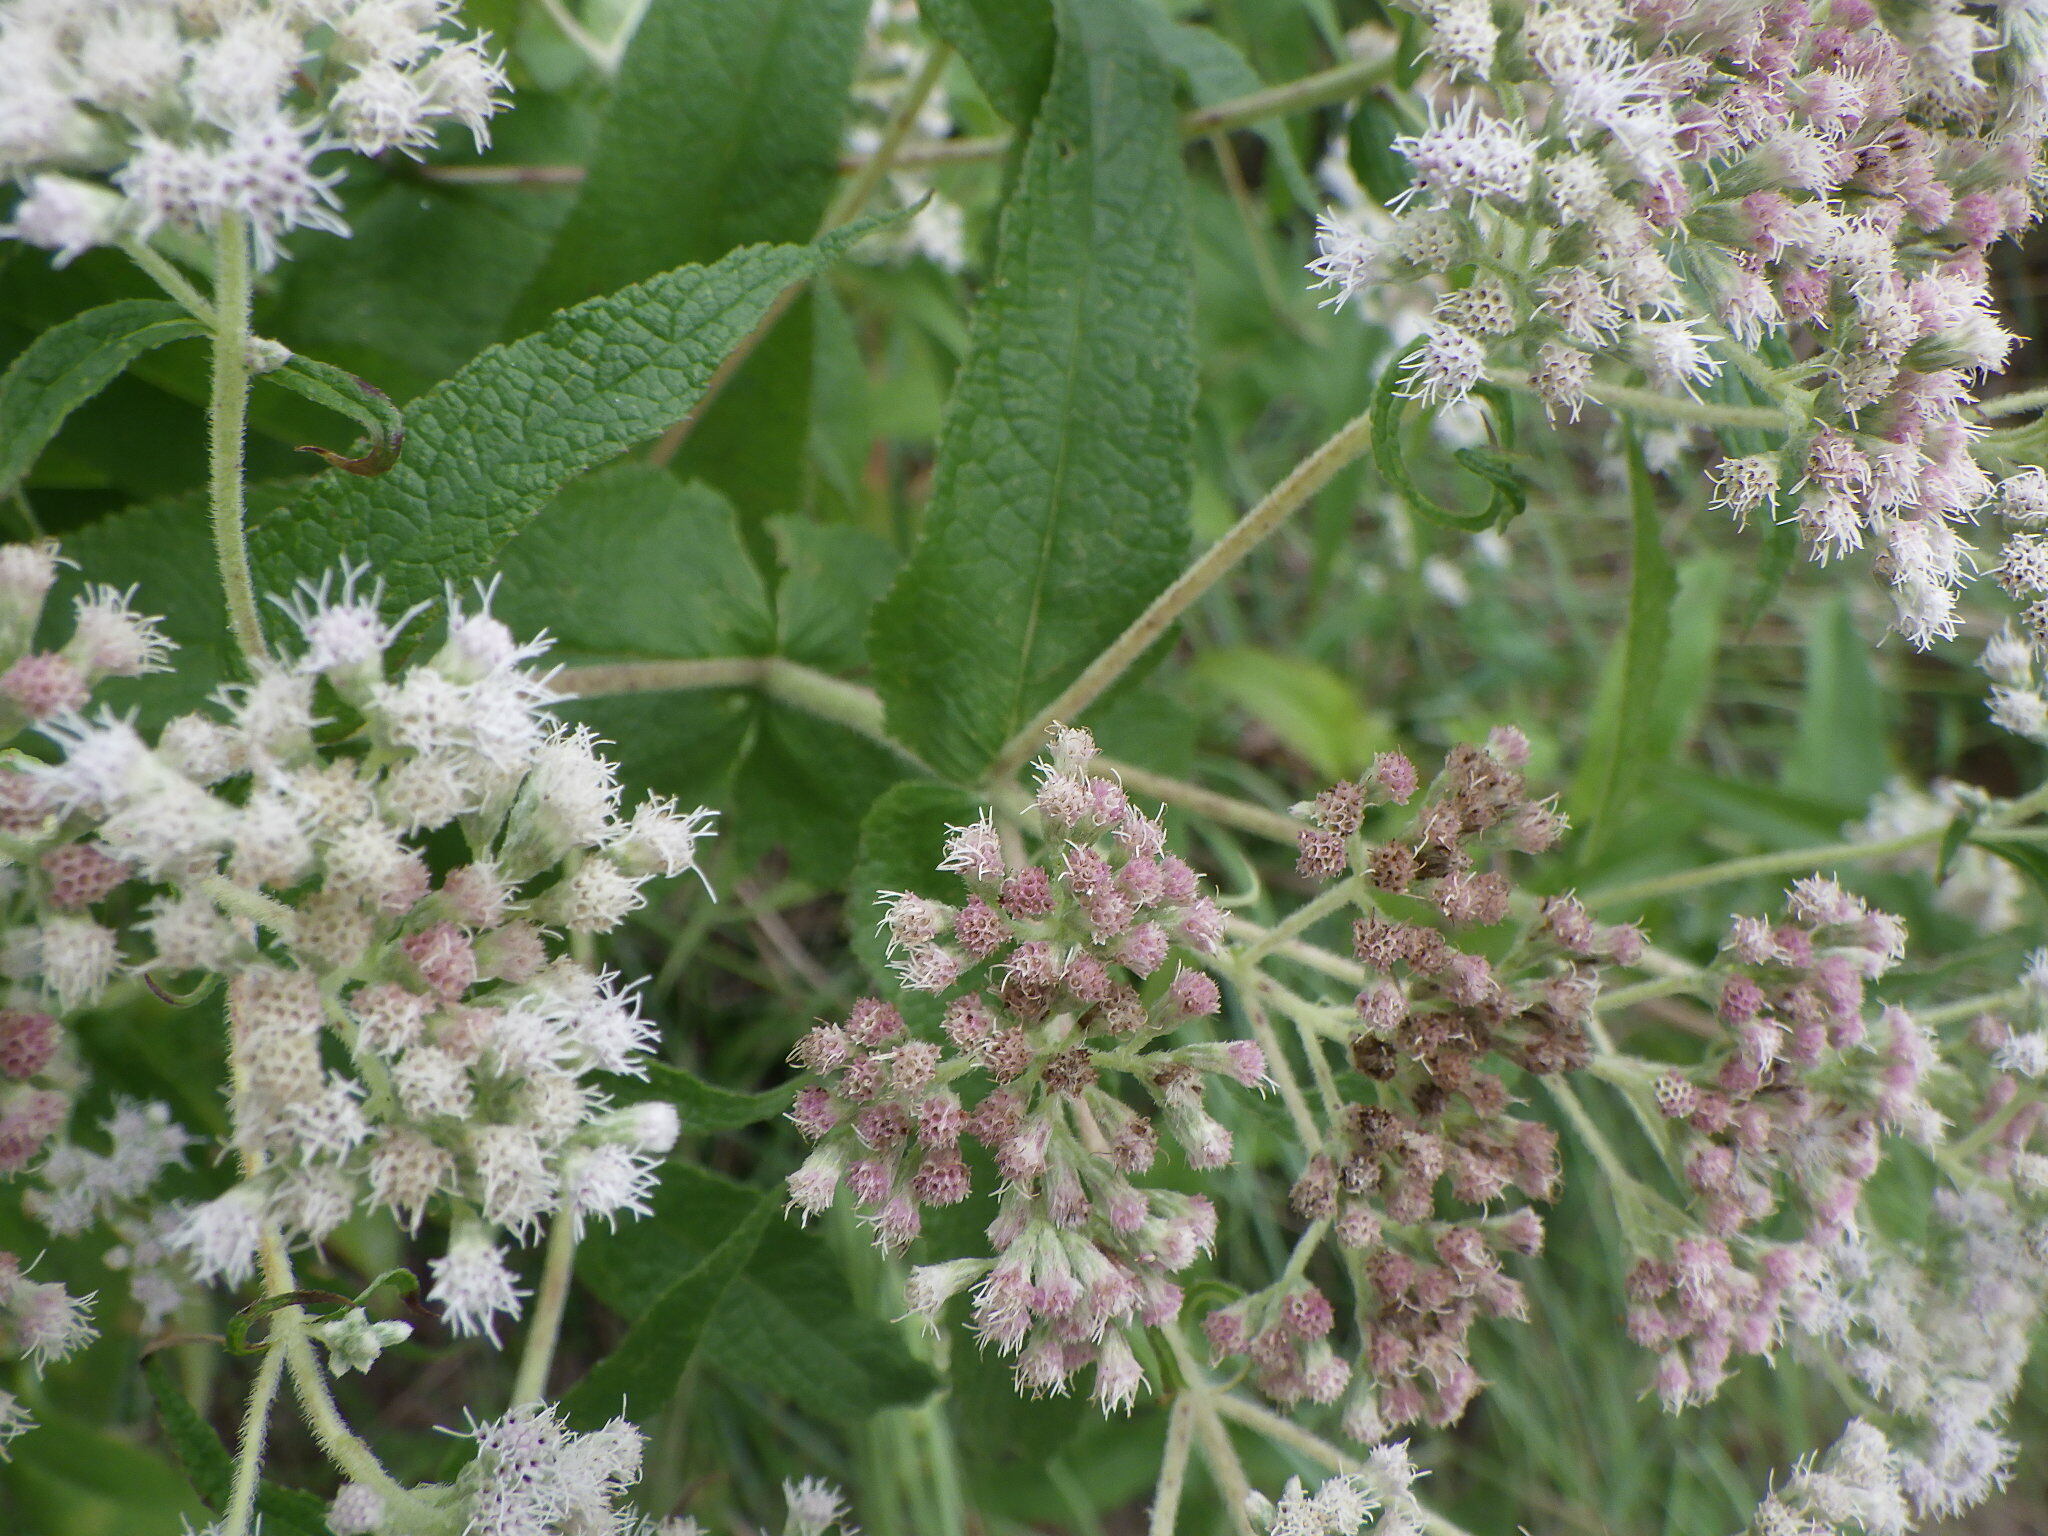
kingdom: Plantae
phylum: Tracheophyta
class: Magnoliopsida
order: Asterales
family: Asteraceae
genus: Eupatorium
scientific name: Eupatorium perfoliatum
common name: Boneset
